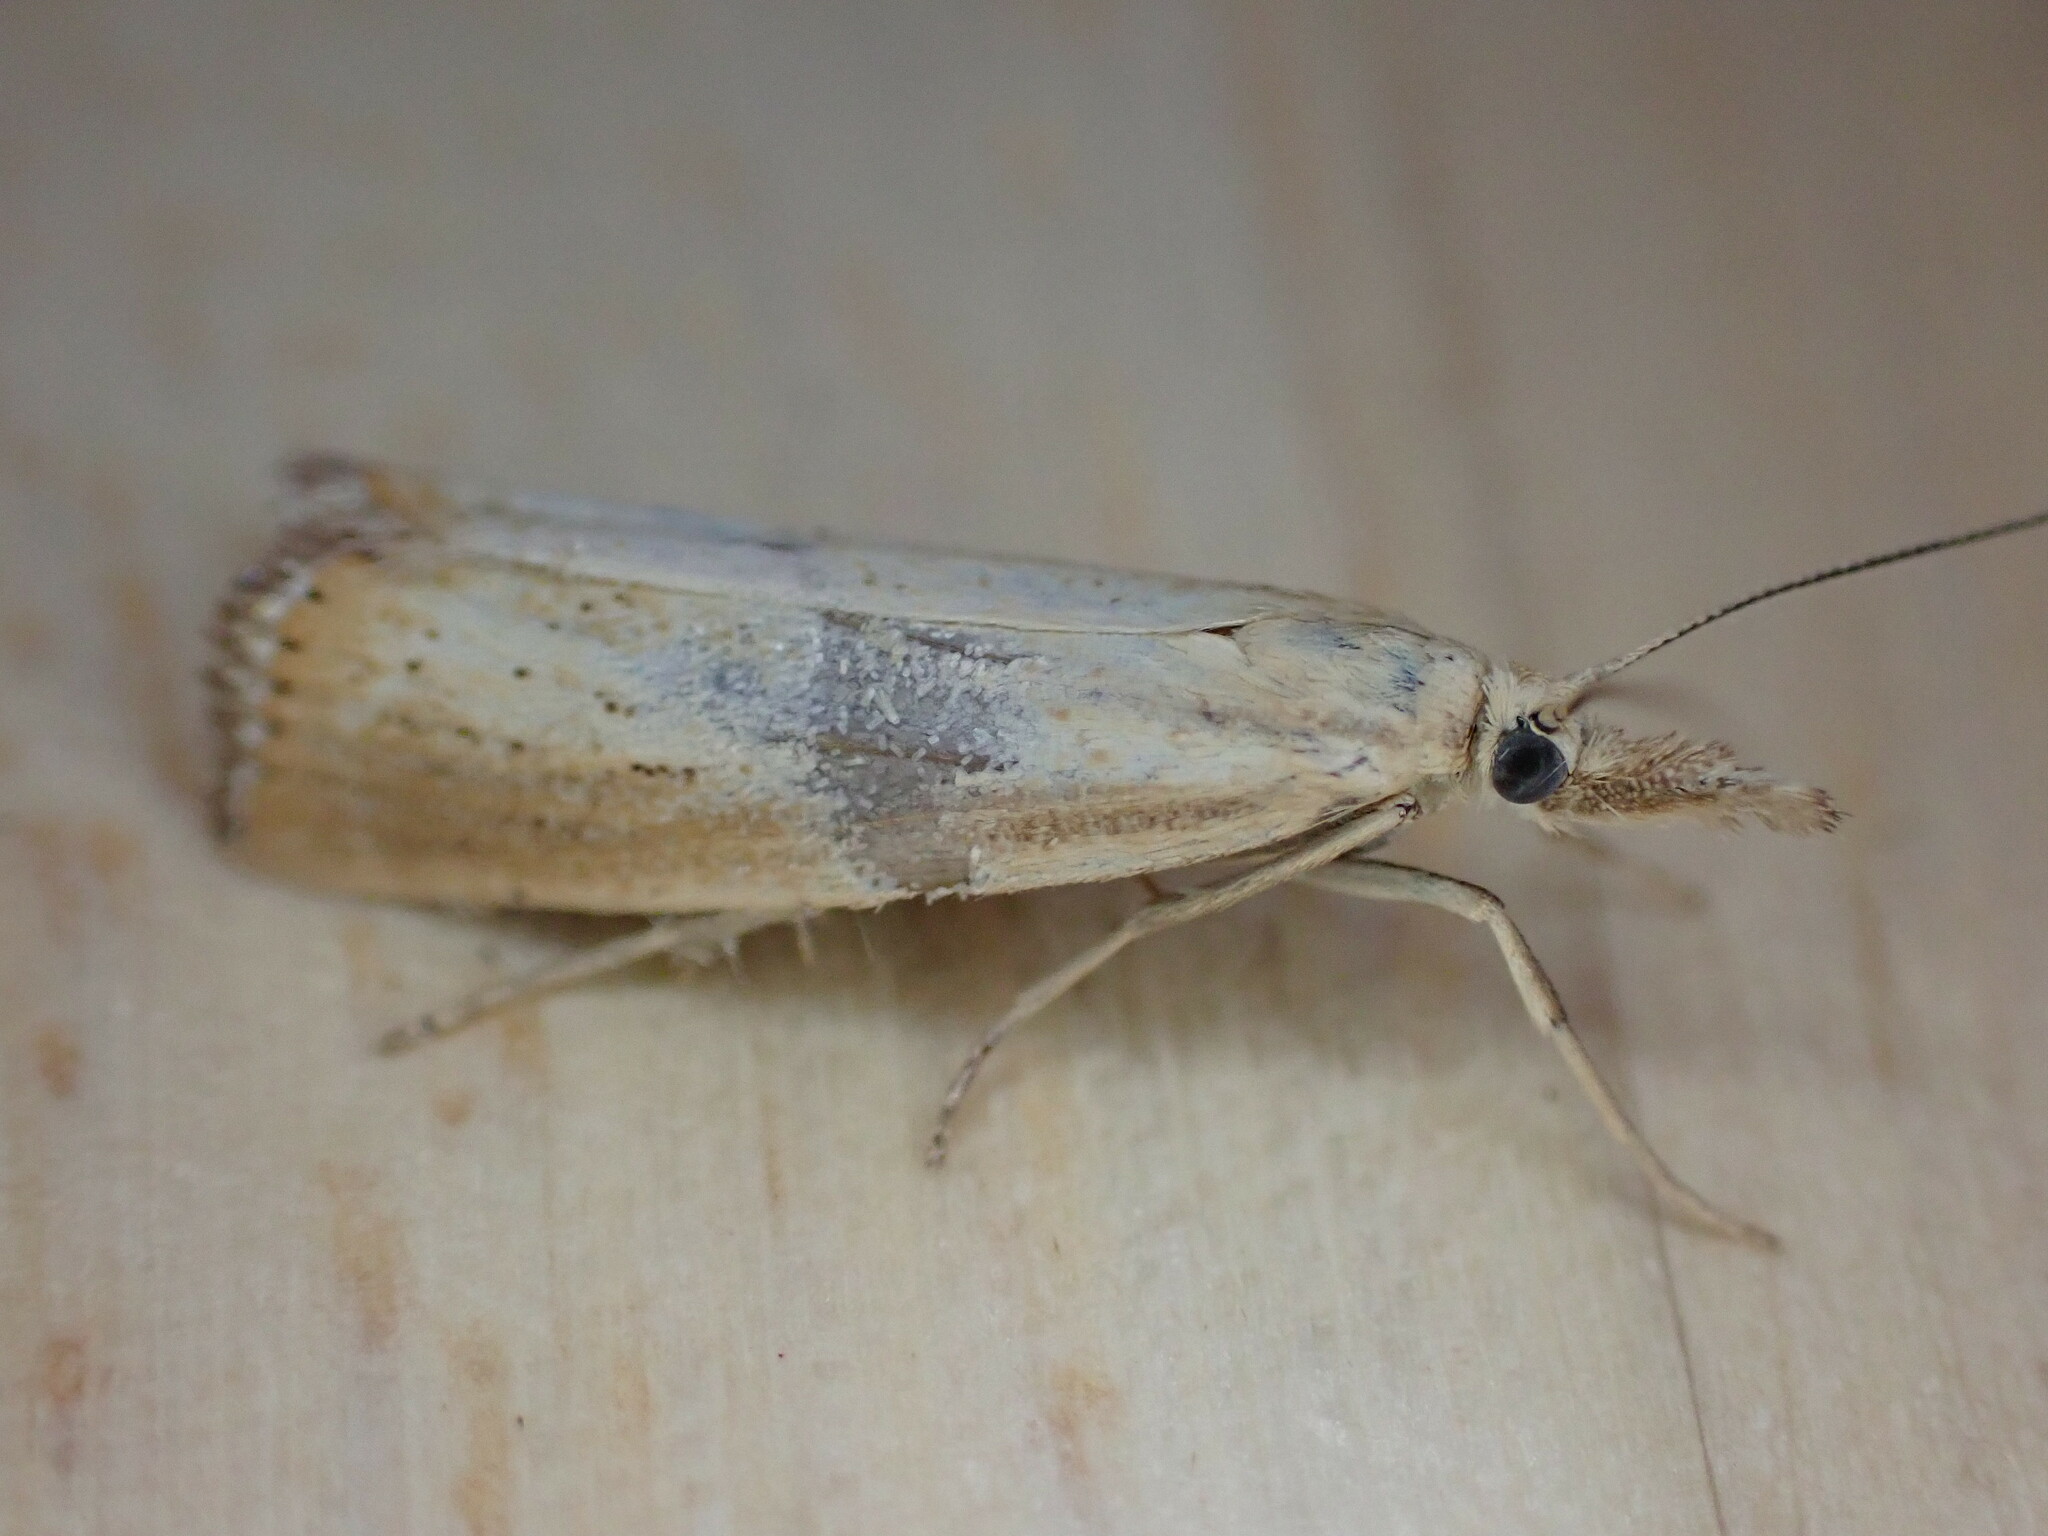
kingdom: Animalia
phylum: Arthropoda
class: Insecta
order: Lepidoptera
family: Crambidae
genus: Agriphila
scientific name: Agriphila straminella
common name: Straw grass-veneer
